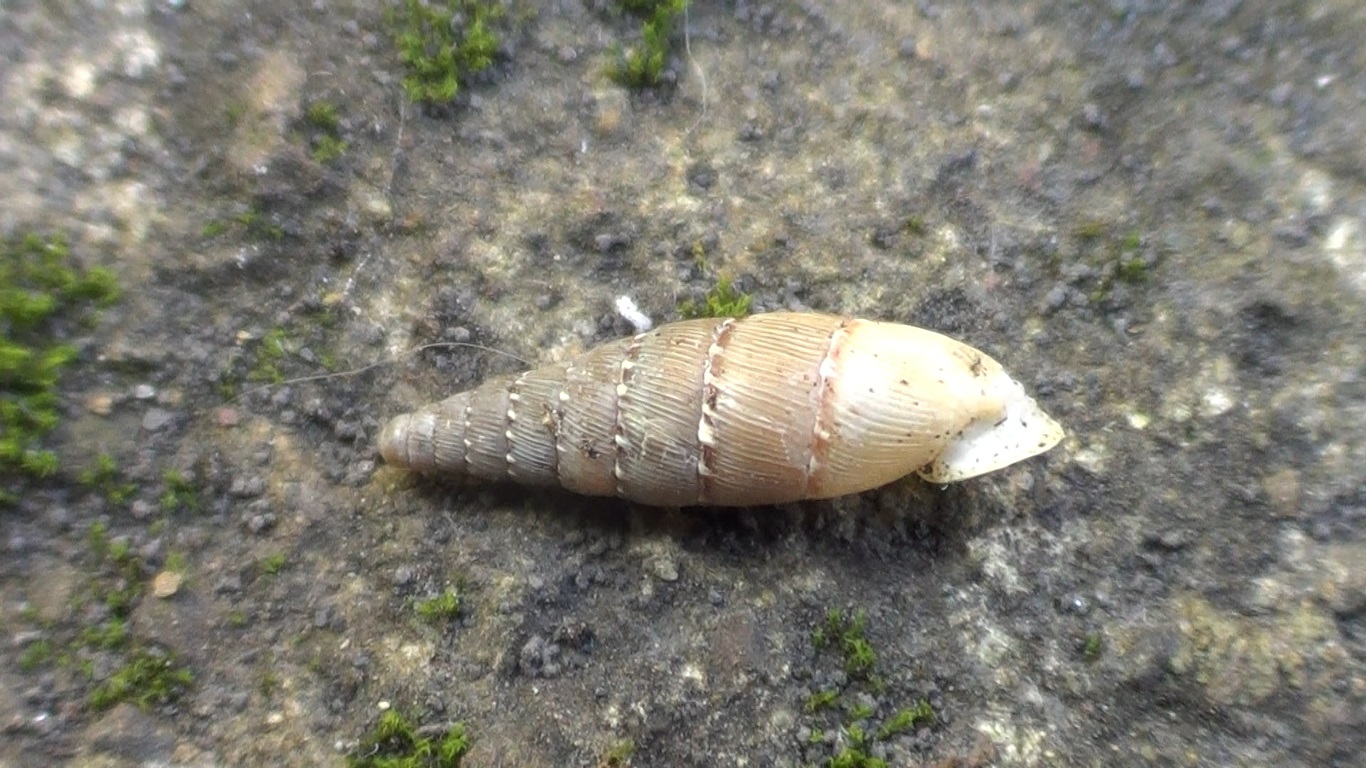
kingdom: Animalia
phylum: Mollusca
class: Gastropoda
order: Stylommatophora
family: Clausiliidae
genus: Papillifera
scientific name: Papillifera papillaris
